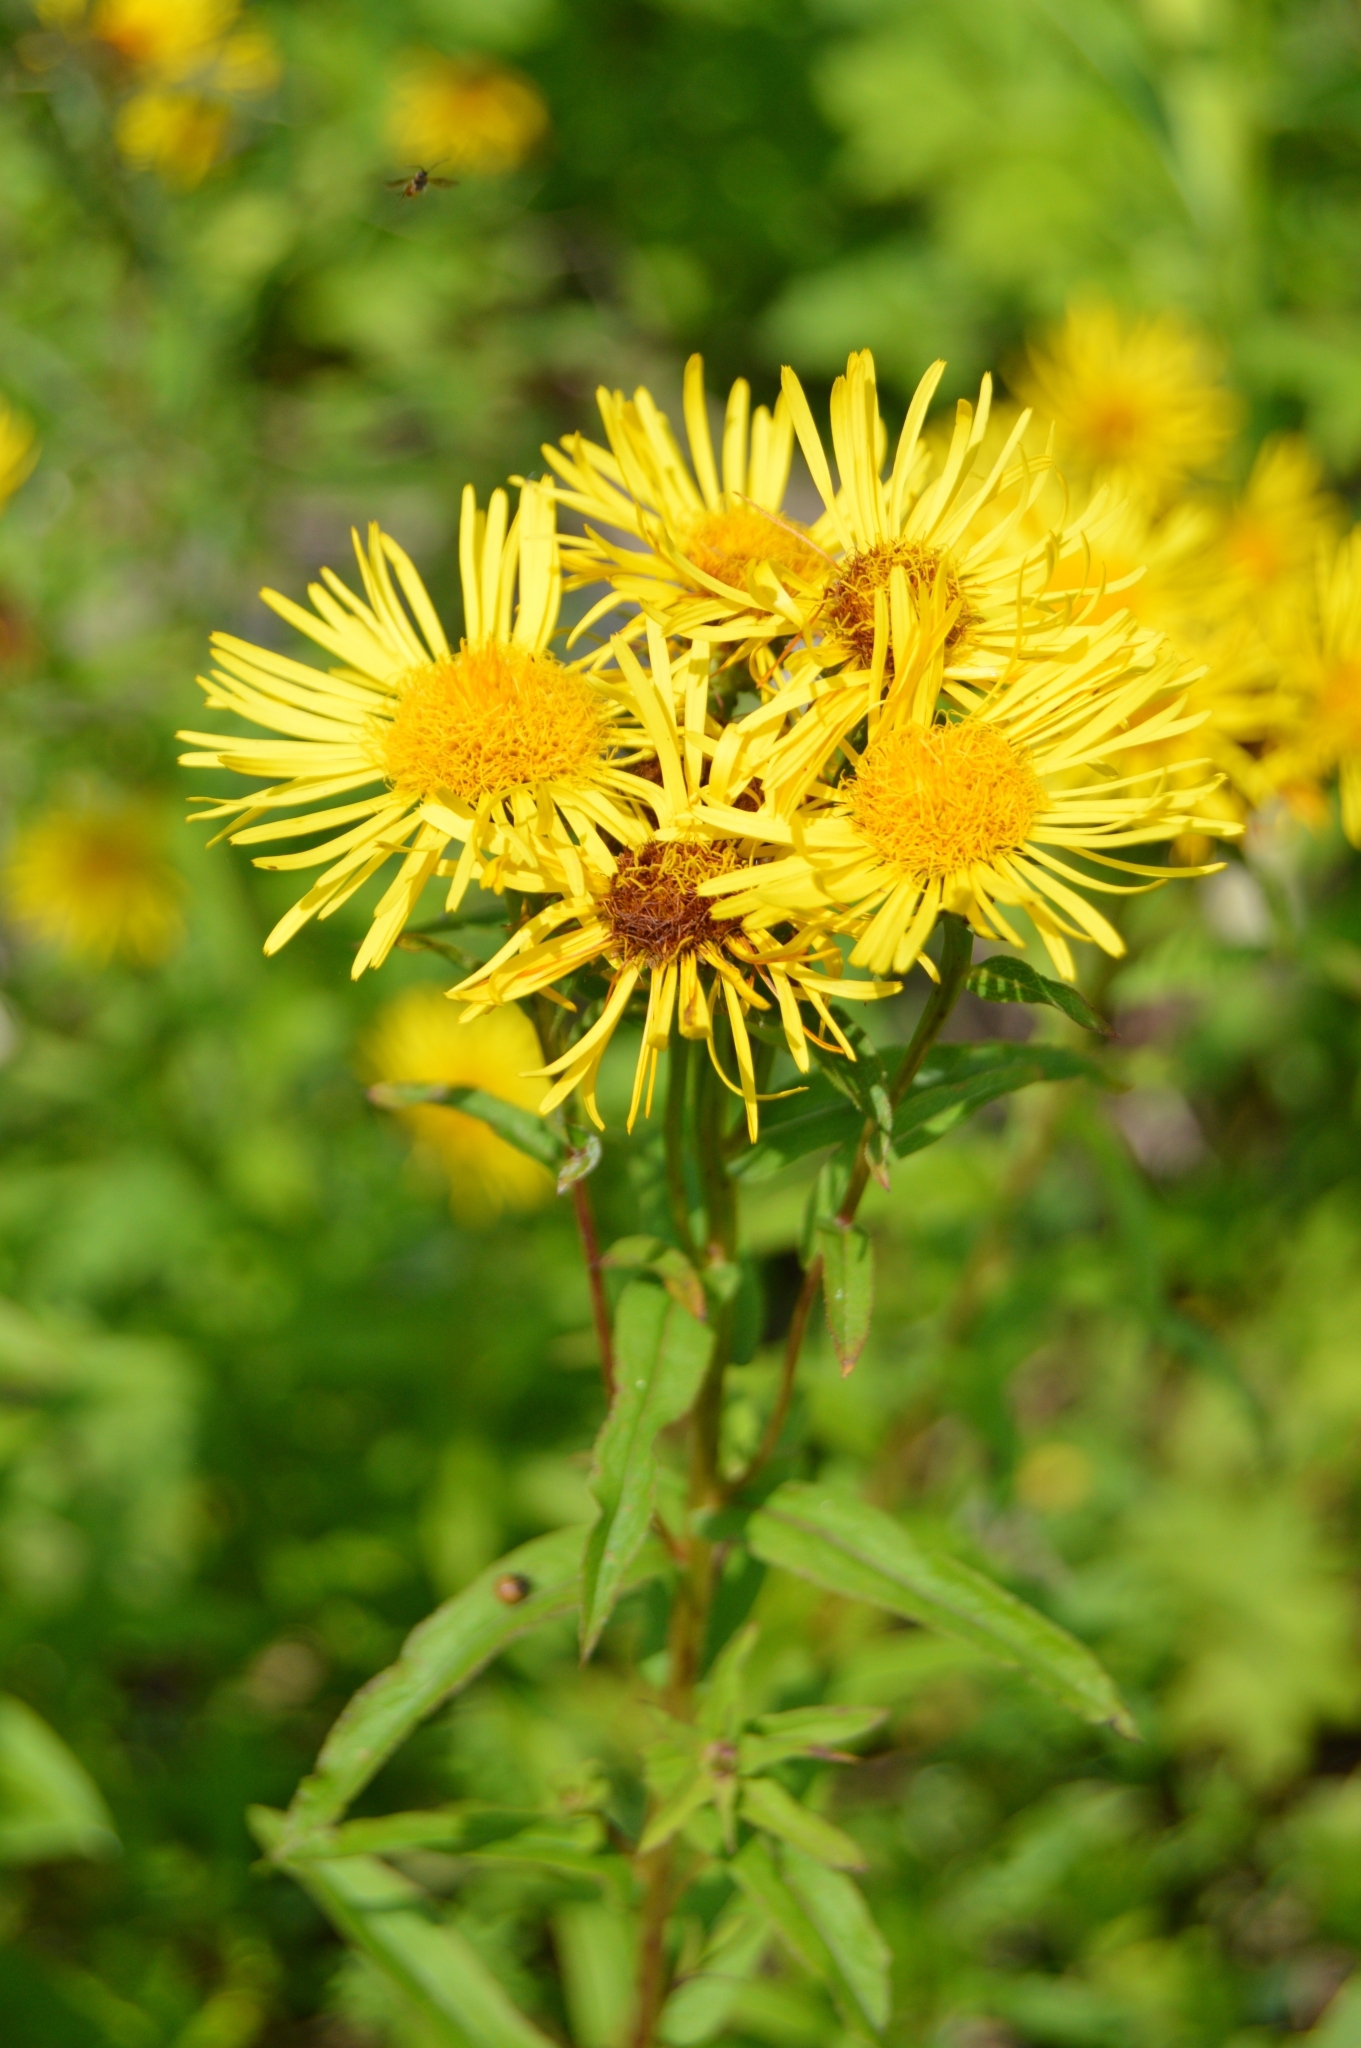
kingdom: Plantae
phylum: Tracheophyta
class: Magnoliopsida
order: Asterales
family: Asteraceae
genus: Pentanema
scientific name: Pentanema salicinum
